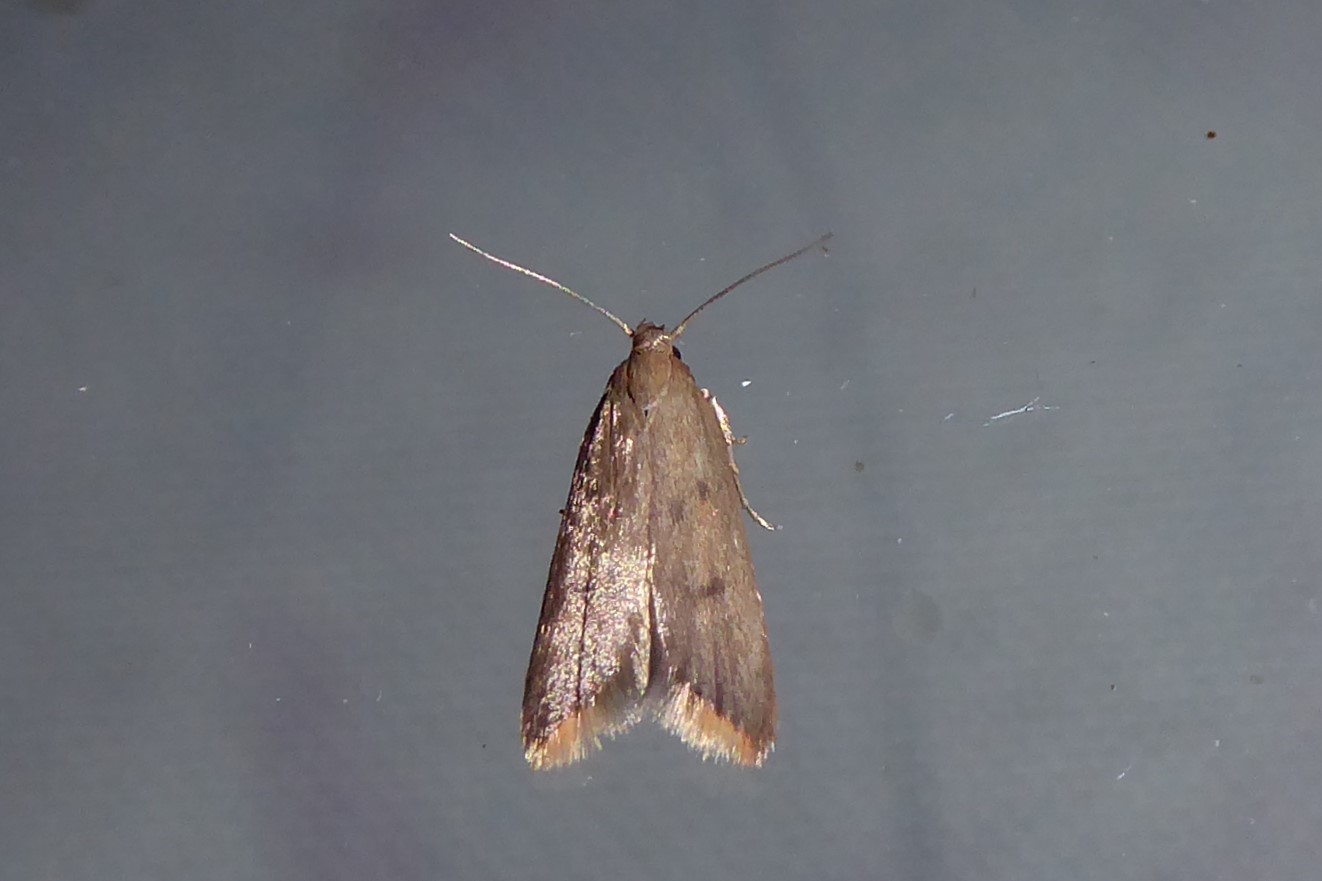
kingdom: Animalia
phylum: Arthropoda
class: Insecta
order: Lepidoptera
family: Oecophoridae
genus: Tachystola
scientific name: Tachystola acroxantha
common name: Ruddy streak
